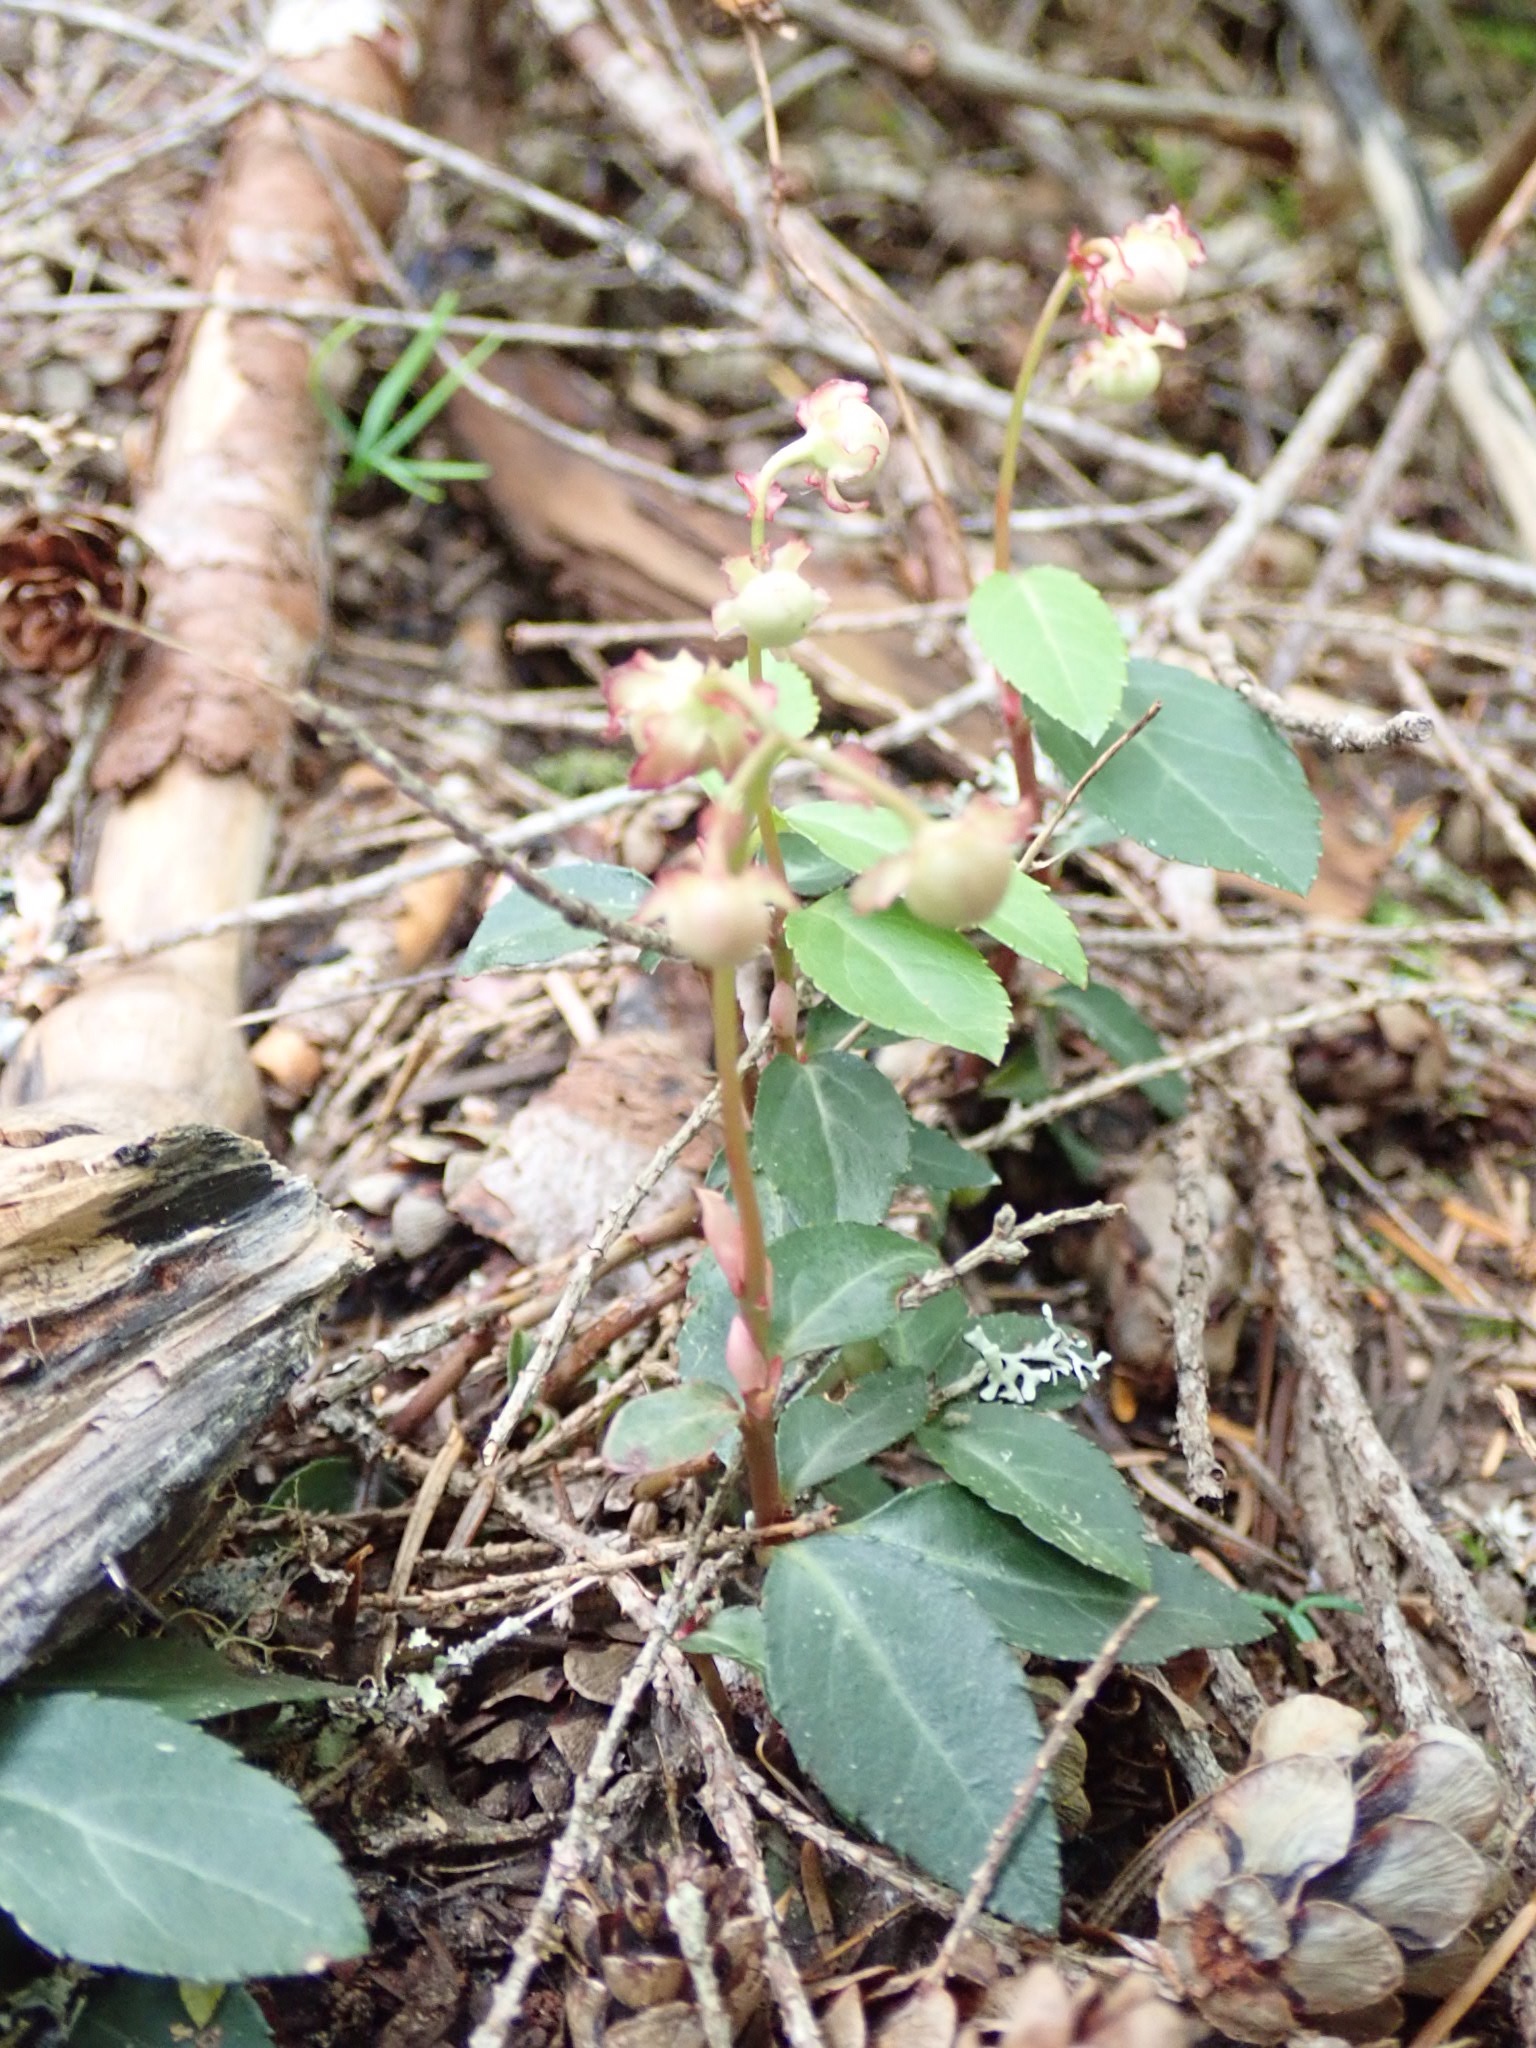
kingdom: Plantae
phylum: Tracheophyta
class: Magnoliopsida
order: Ericales
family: Ericaceae
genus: Chimaphila
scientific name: Chimaphila menziesii
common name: Menzies' pipsissewa
